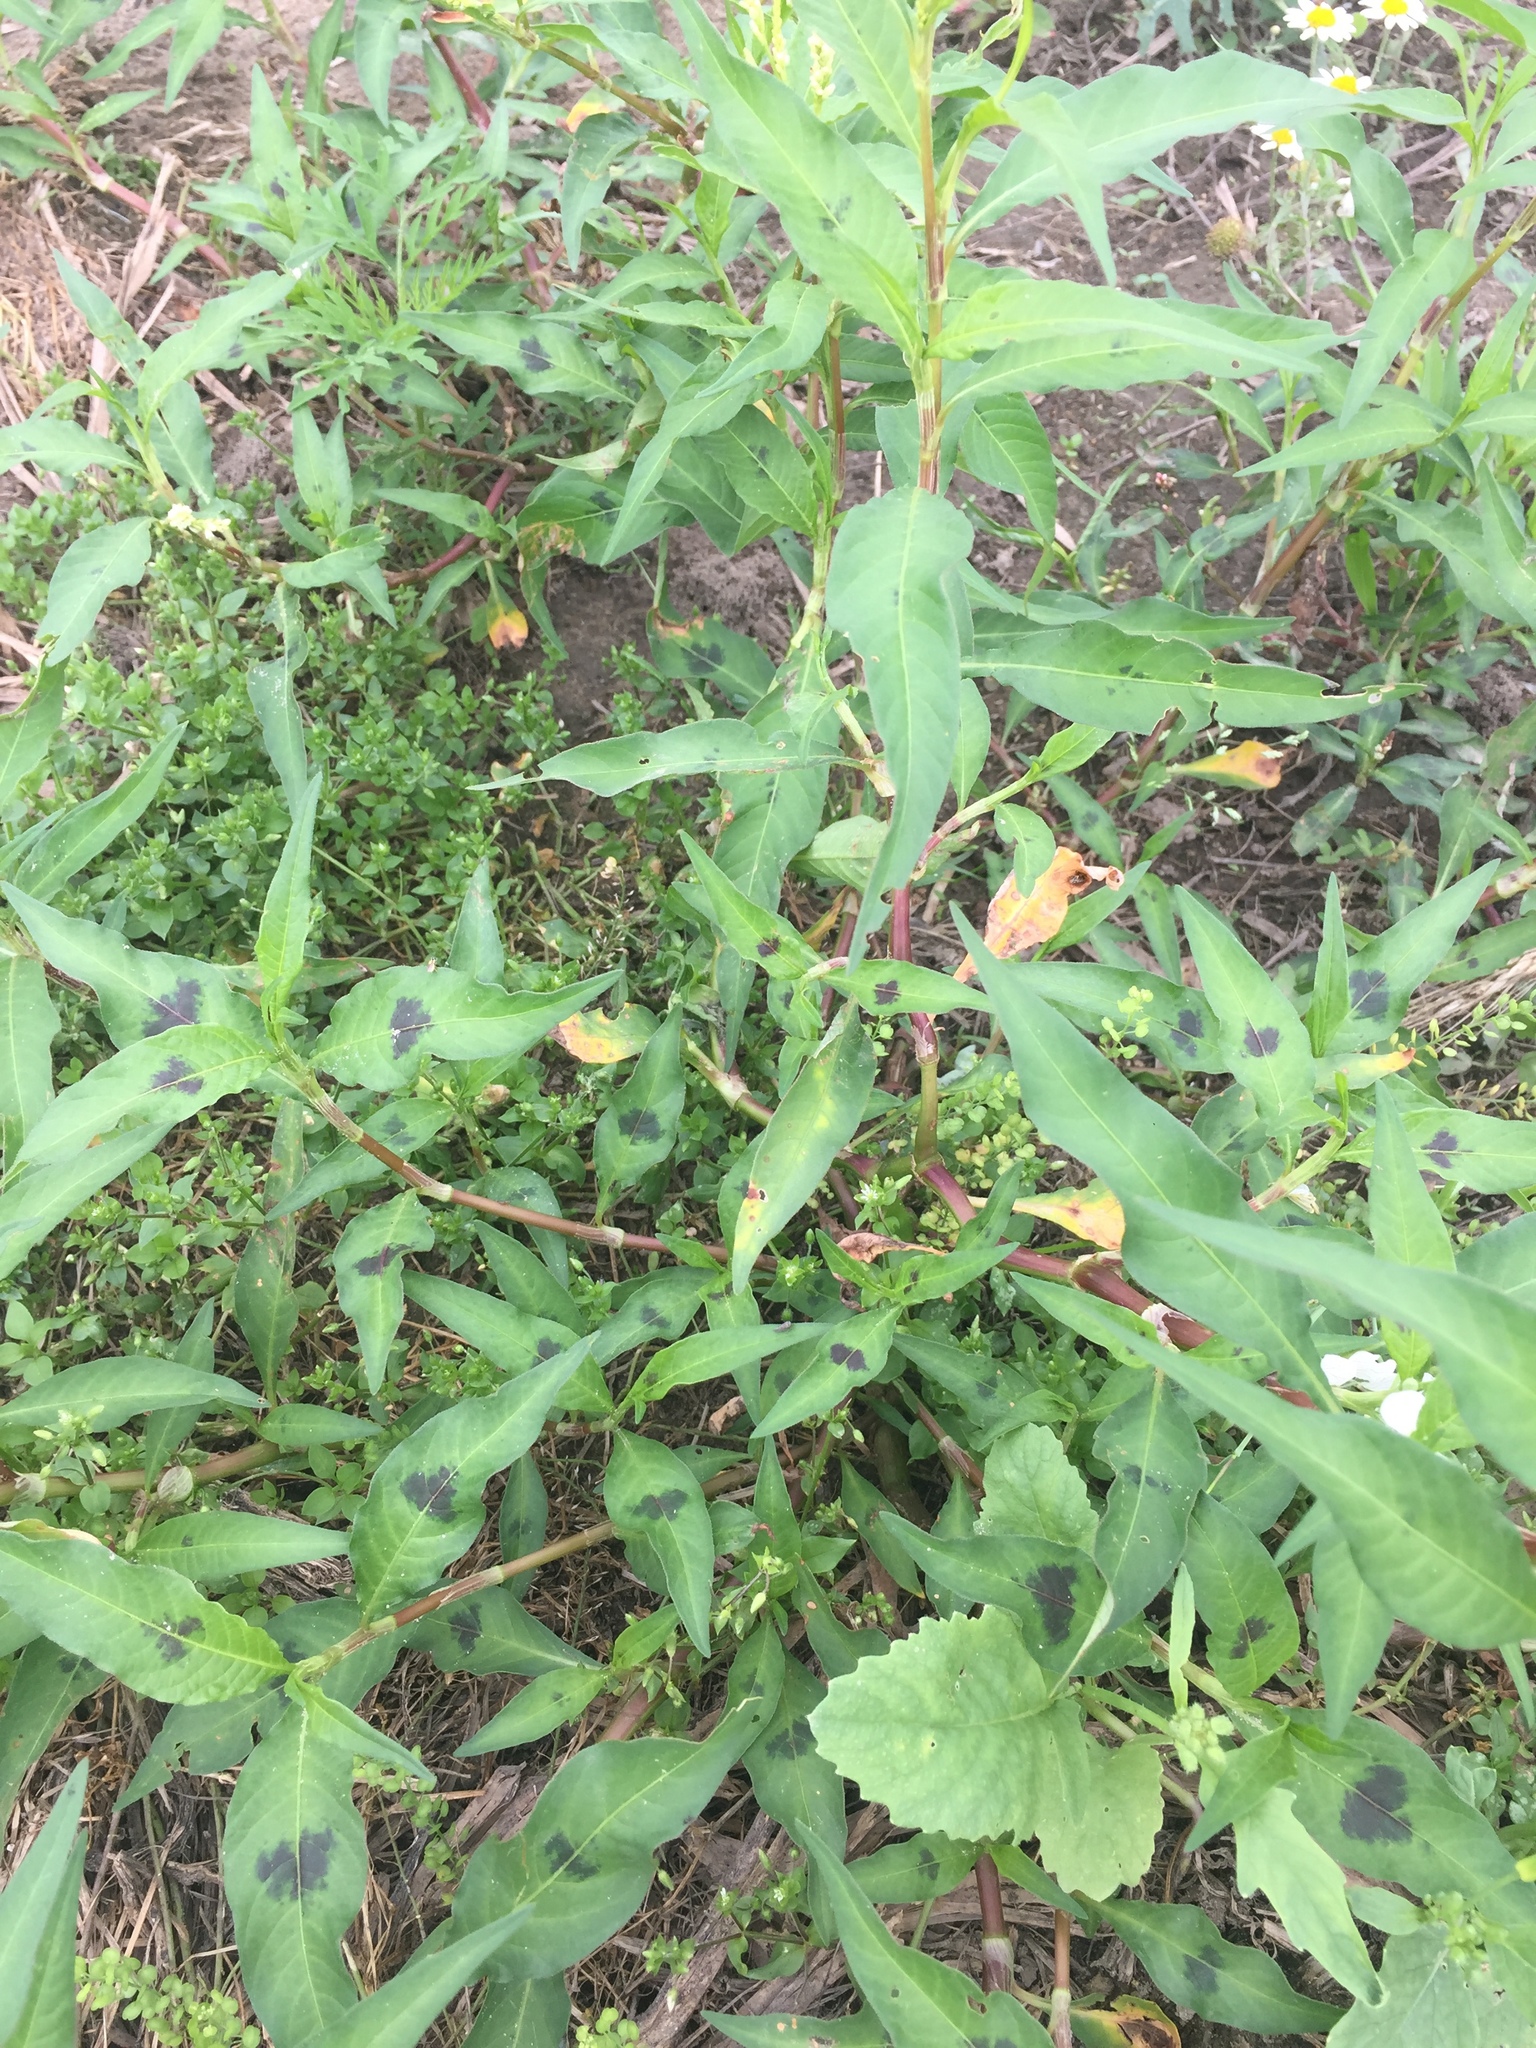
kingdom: Plantae
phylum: Tracheophyta
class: Magnoliopsida
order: Caryophyllales
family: Polygonaceae
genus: Persicaria
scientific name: Persicaria lapathifolia
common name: Curlytop knotweed
